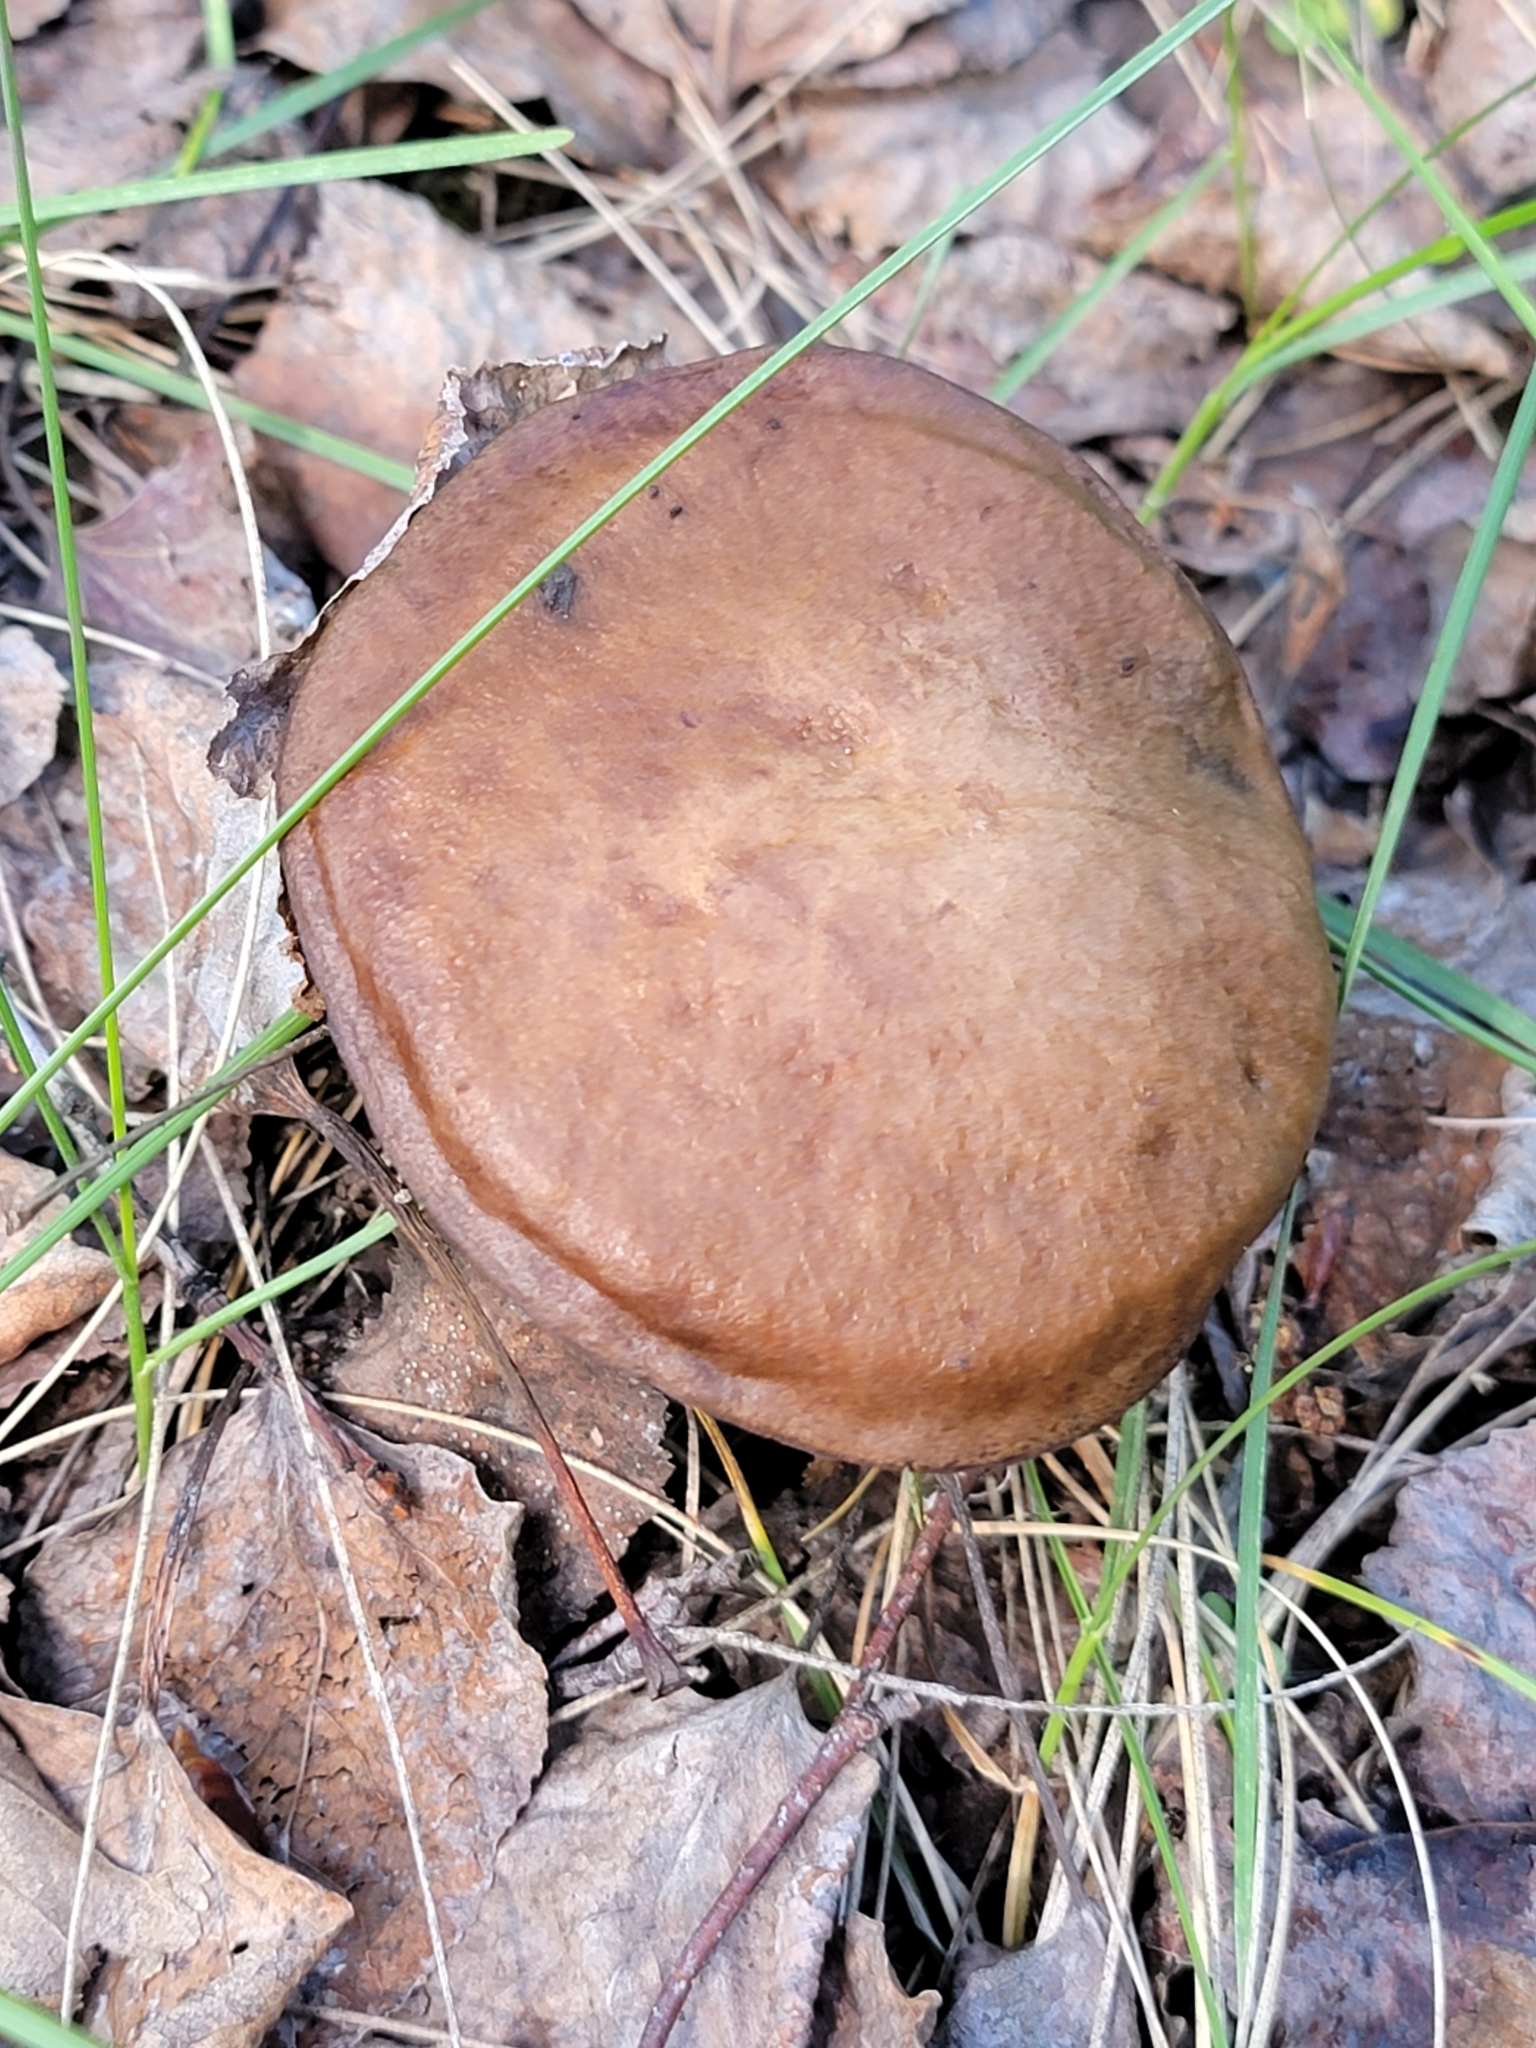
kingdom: Fungi
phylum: Basidiomycota
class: Agaricomycetes
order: Boletales
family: Boletaceae
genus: Leccinum
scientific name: Leccinum insigne
